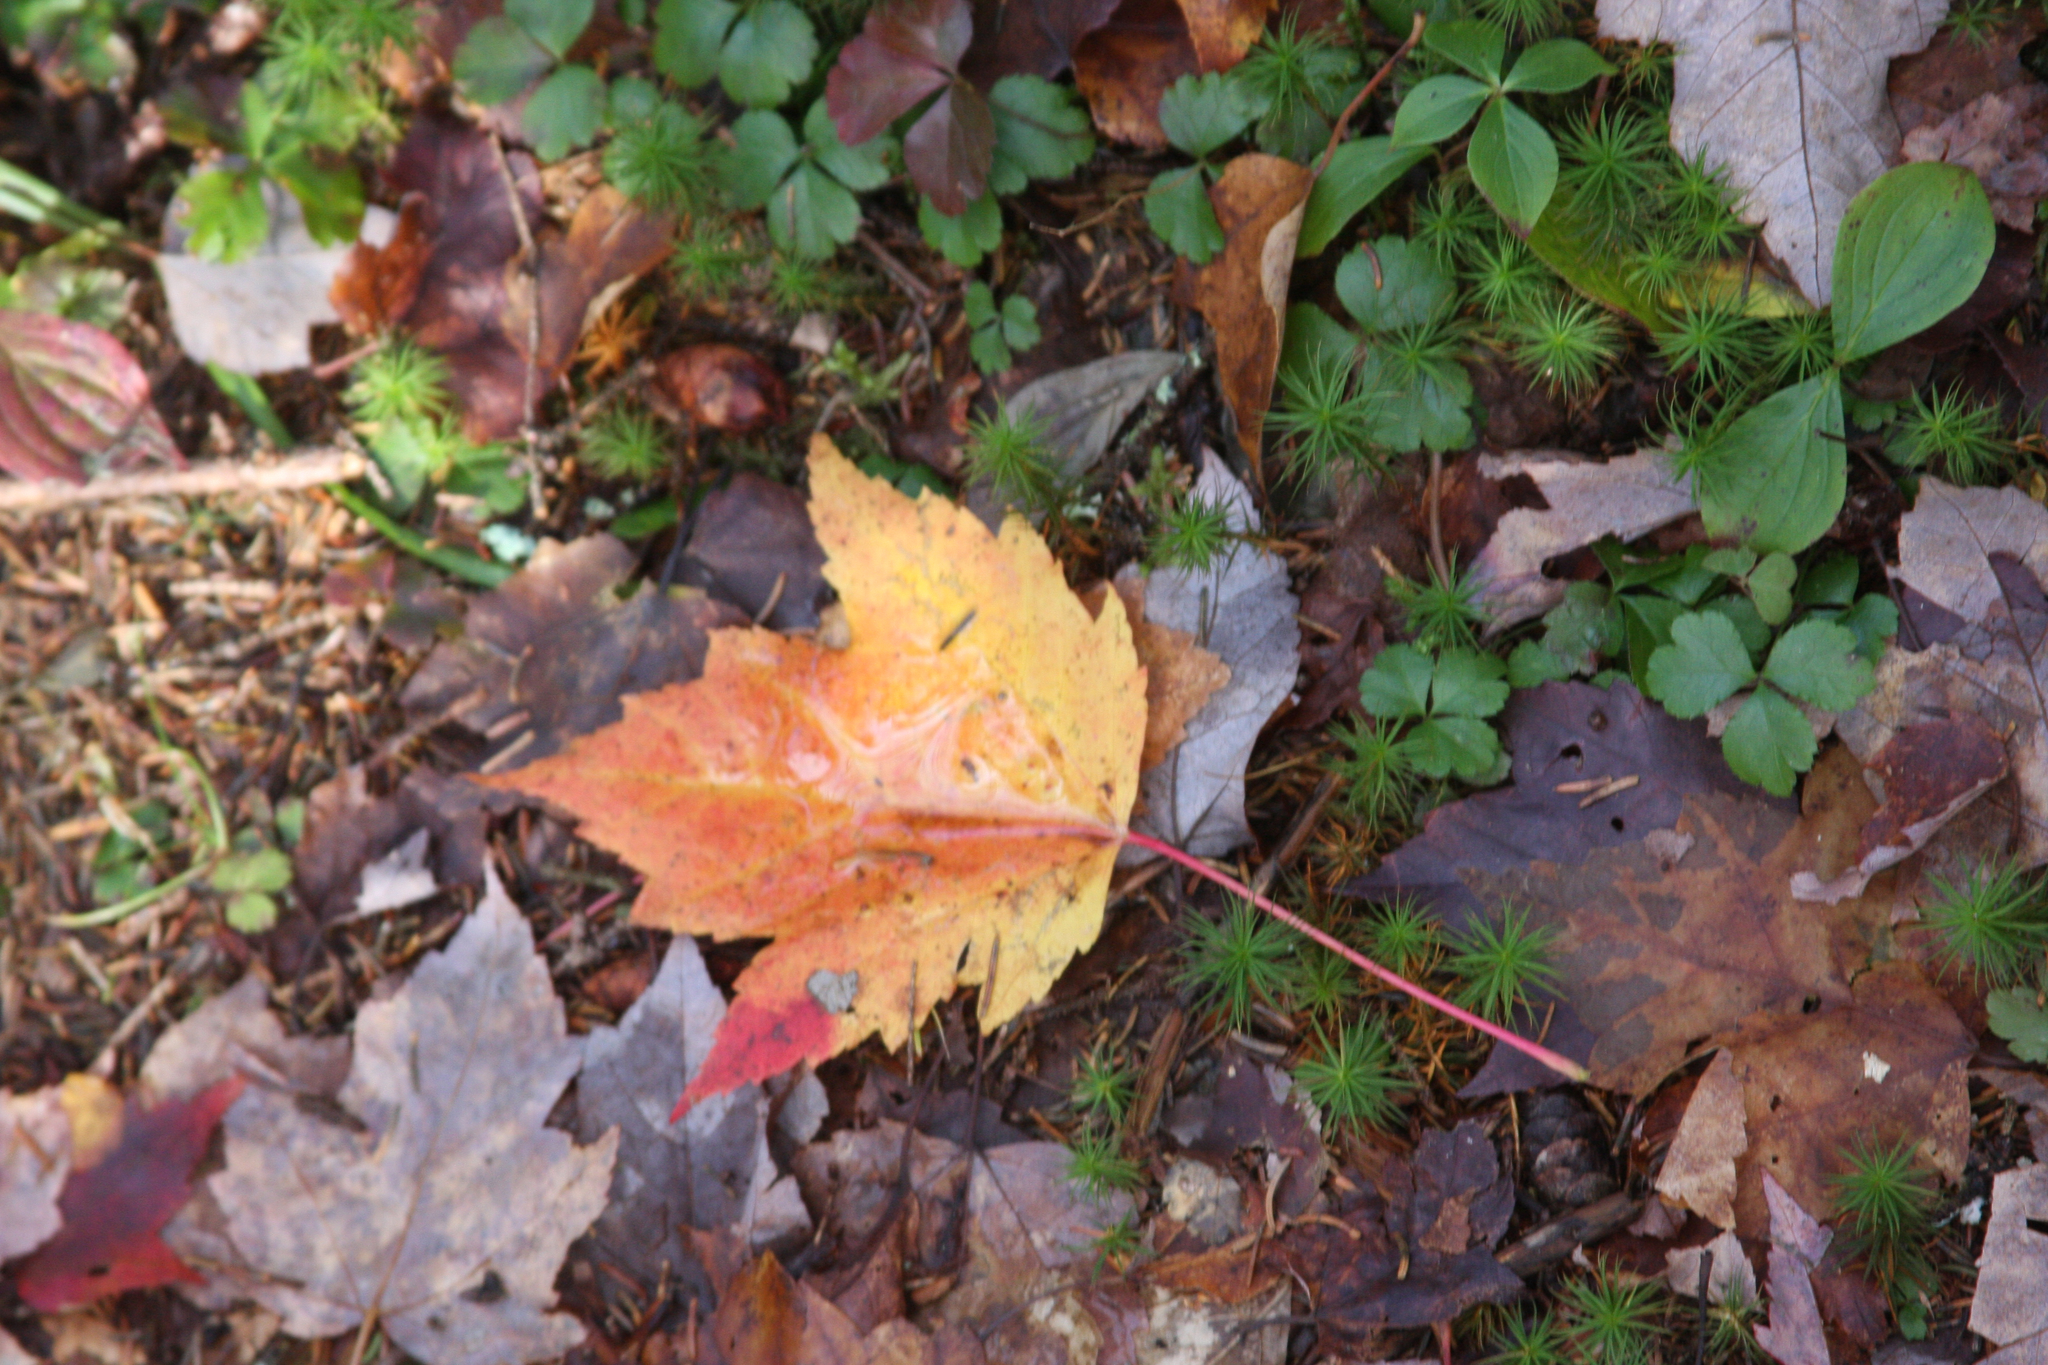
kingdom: Plantae
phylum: Tracheophyta
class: Magnoliopsida
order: Sapindales
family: Sapindaceae
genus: Acer
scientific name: Acer rubrum
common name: Red maple
